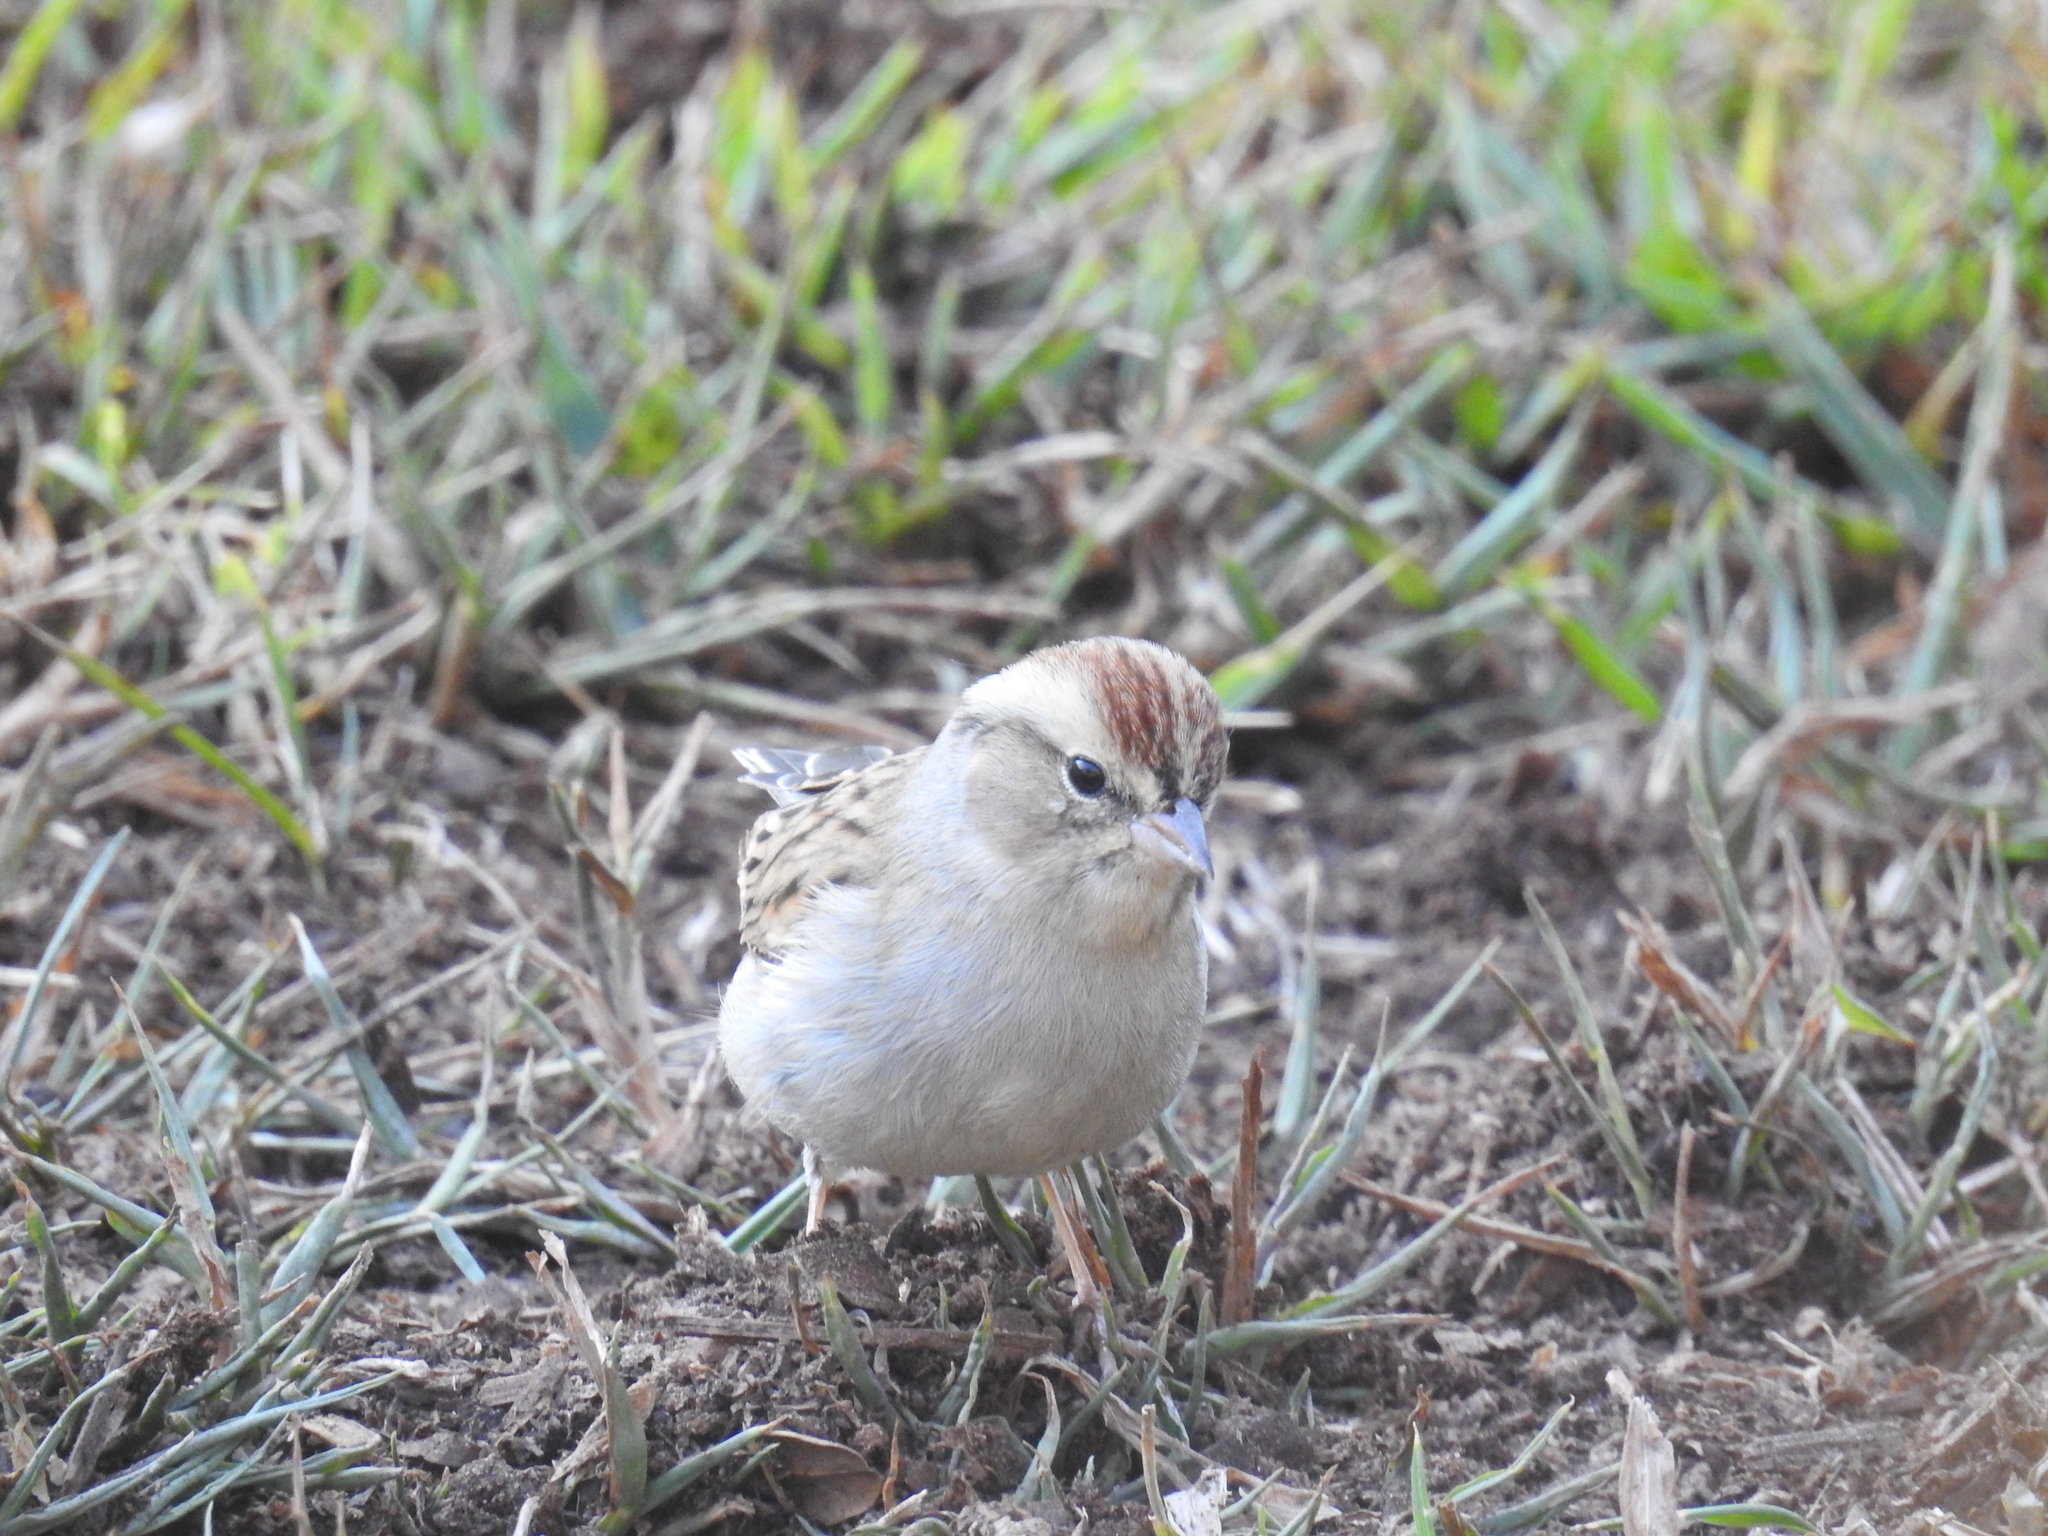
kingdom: Animalia
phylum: Chordata
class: Aves
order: Passeriformes
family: Passerellidae
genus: Spizella
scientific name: Spizella passerina
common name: Chipping sparrow
